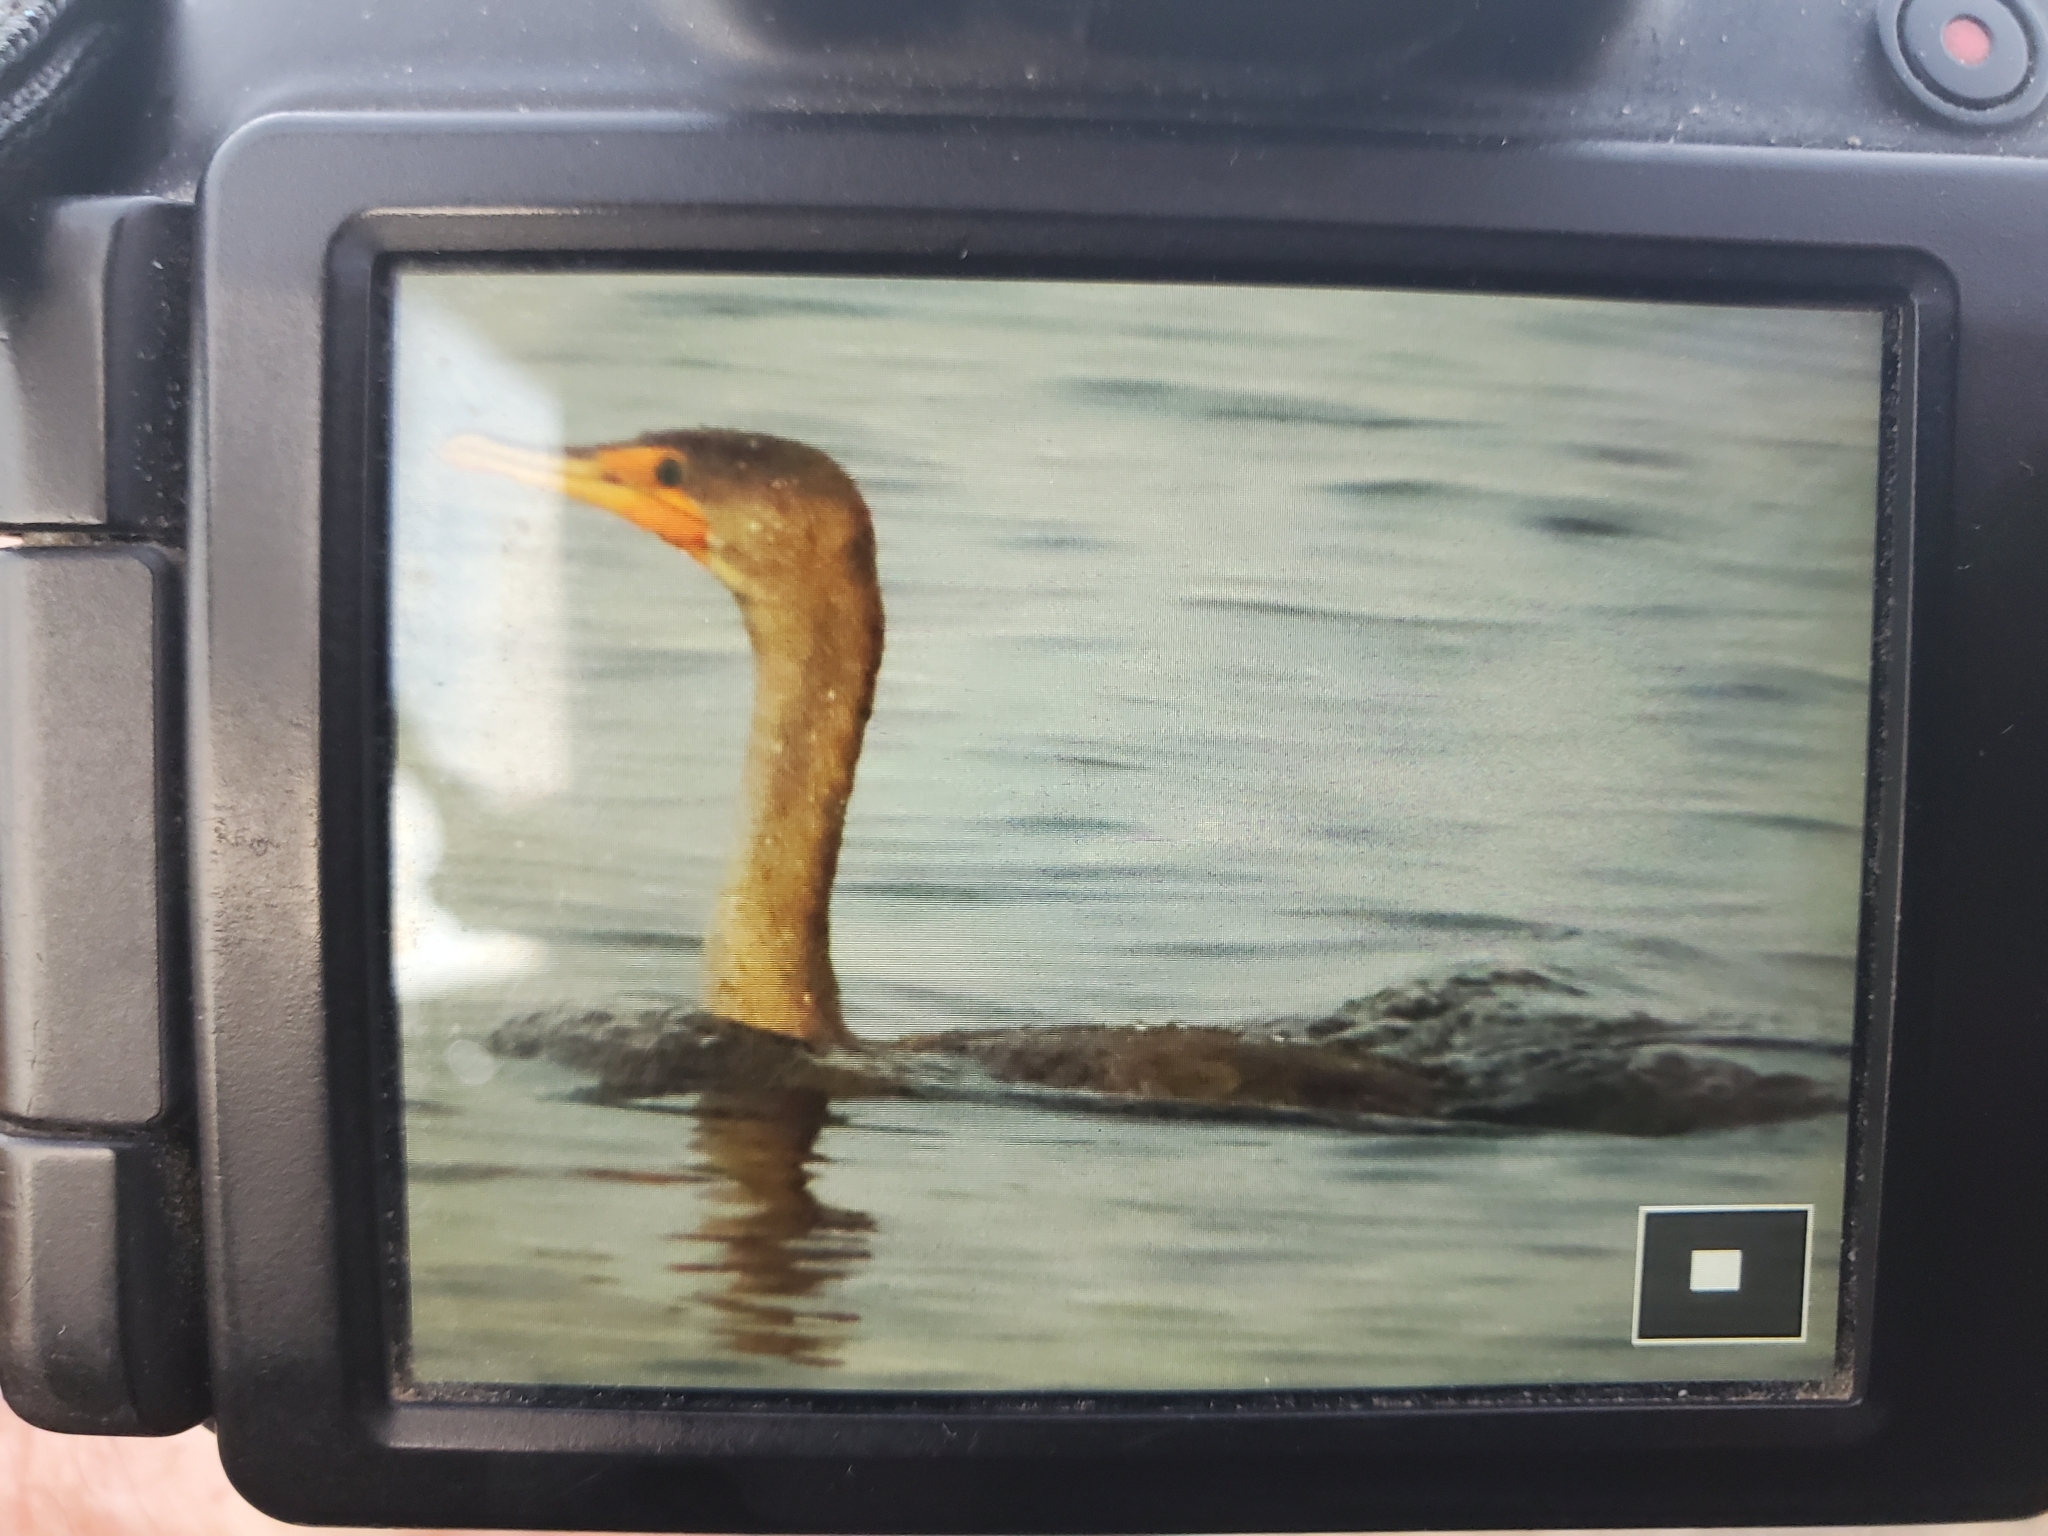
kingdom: Animalia
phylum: Chordata
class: Aves
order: Suliformes
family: Phalacrocoracidae
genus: Phalacrocorax
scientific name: Phalacrocorax auritus
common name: Double-crested cormorant
